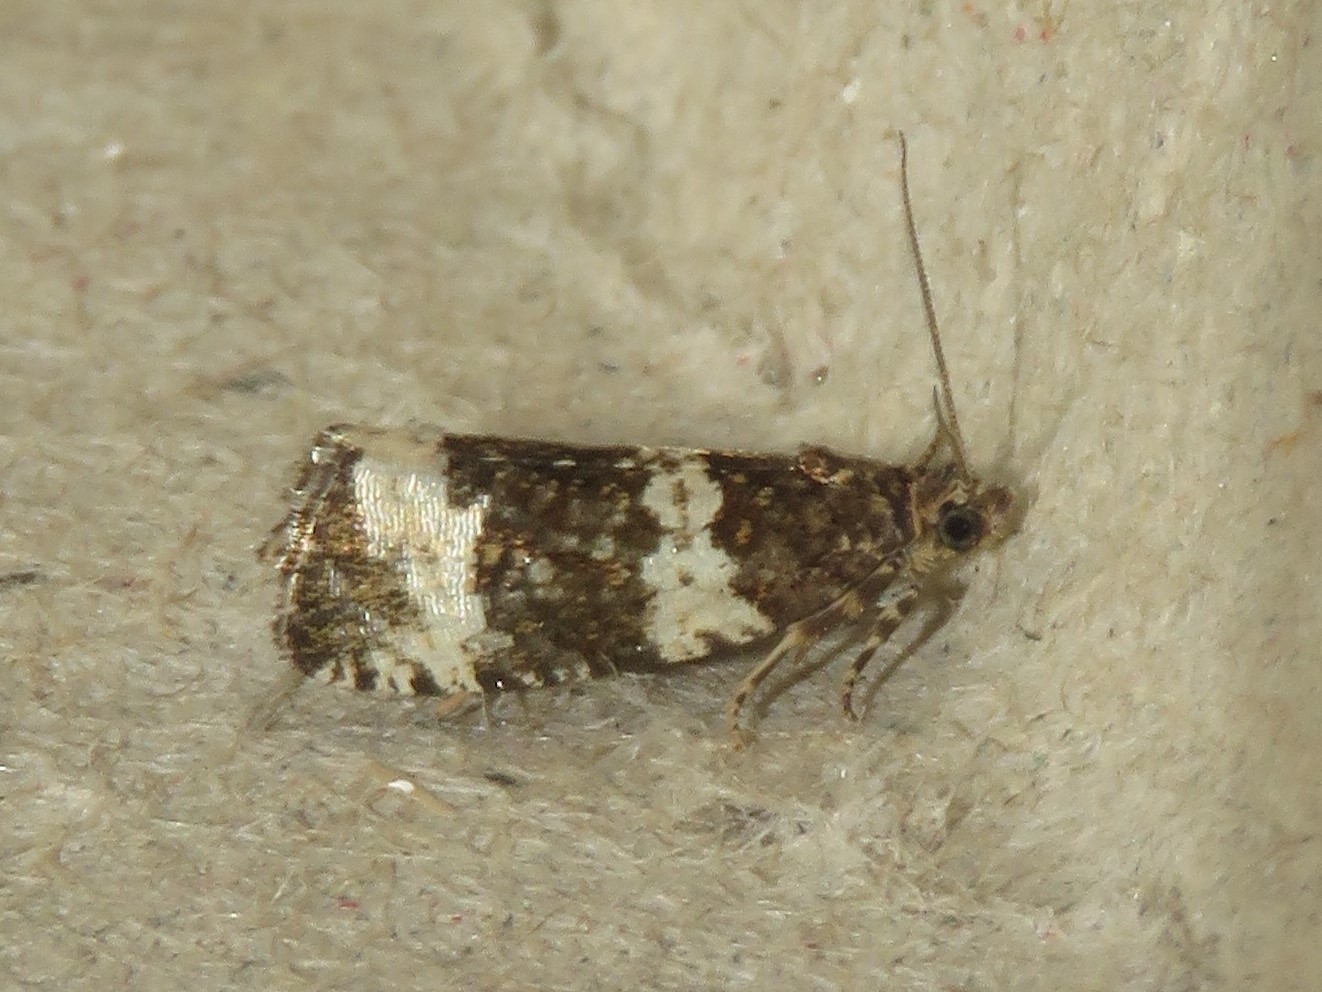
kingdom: Animalia
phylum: Arthropoda
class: Insecta
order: Lepidoptera
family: Tortricidae
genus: Olethreutes
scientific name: Olethreutes trinitana
